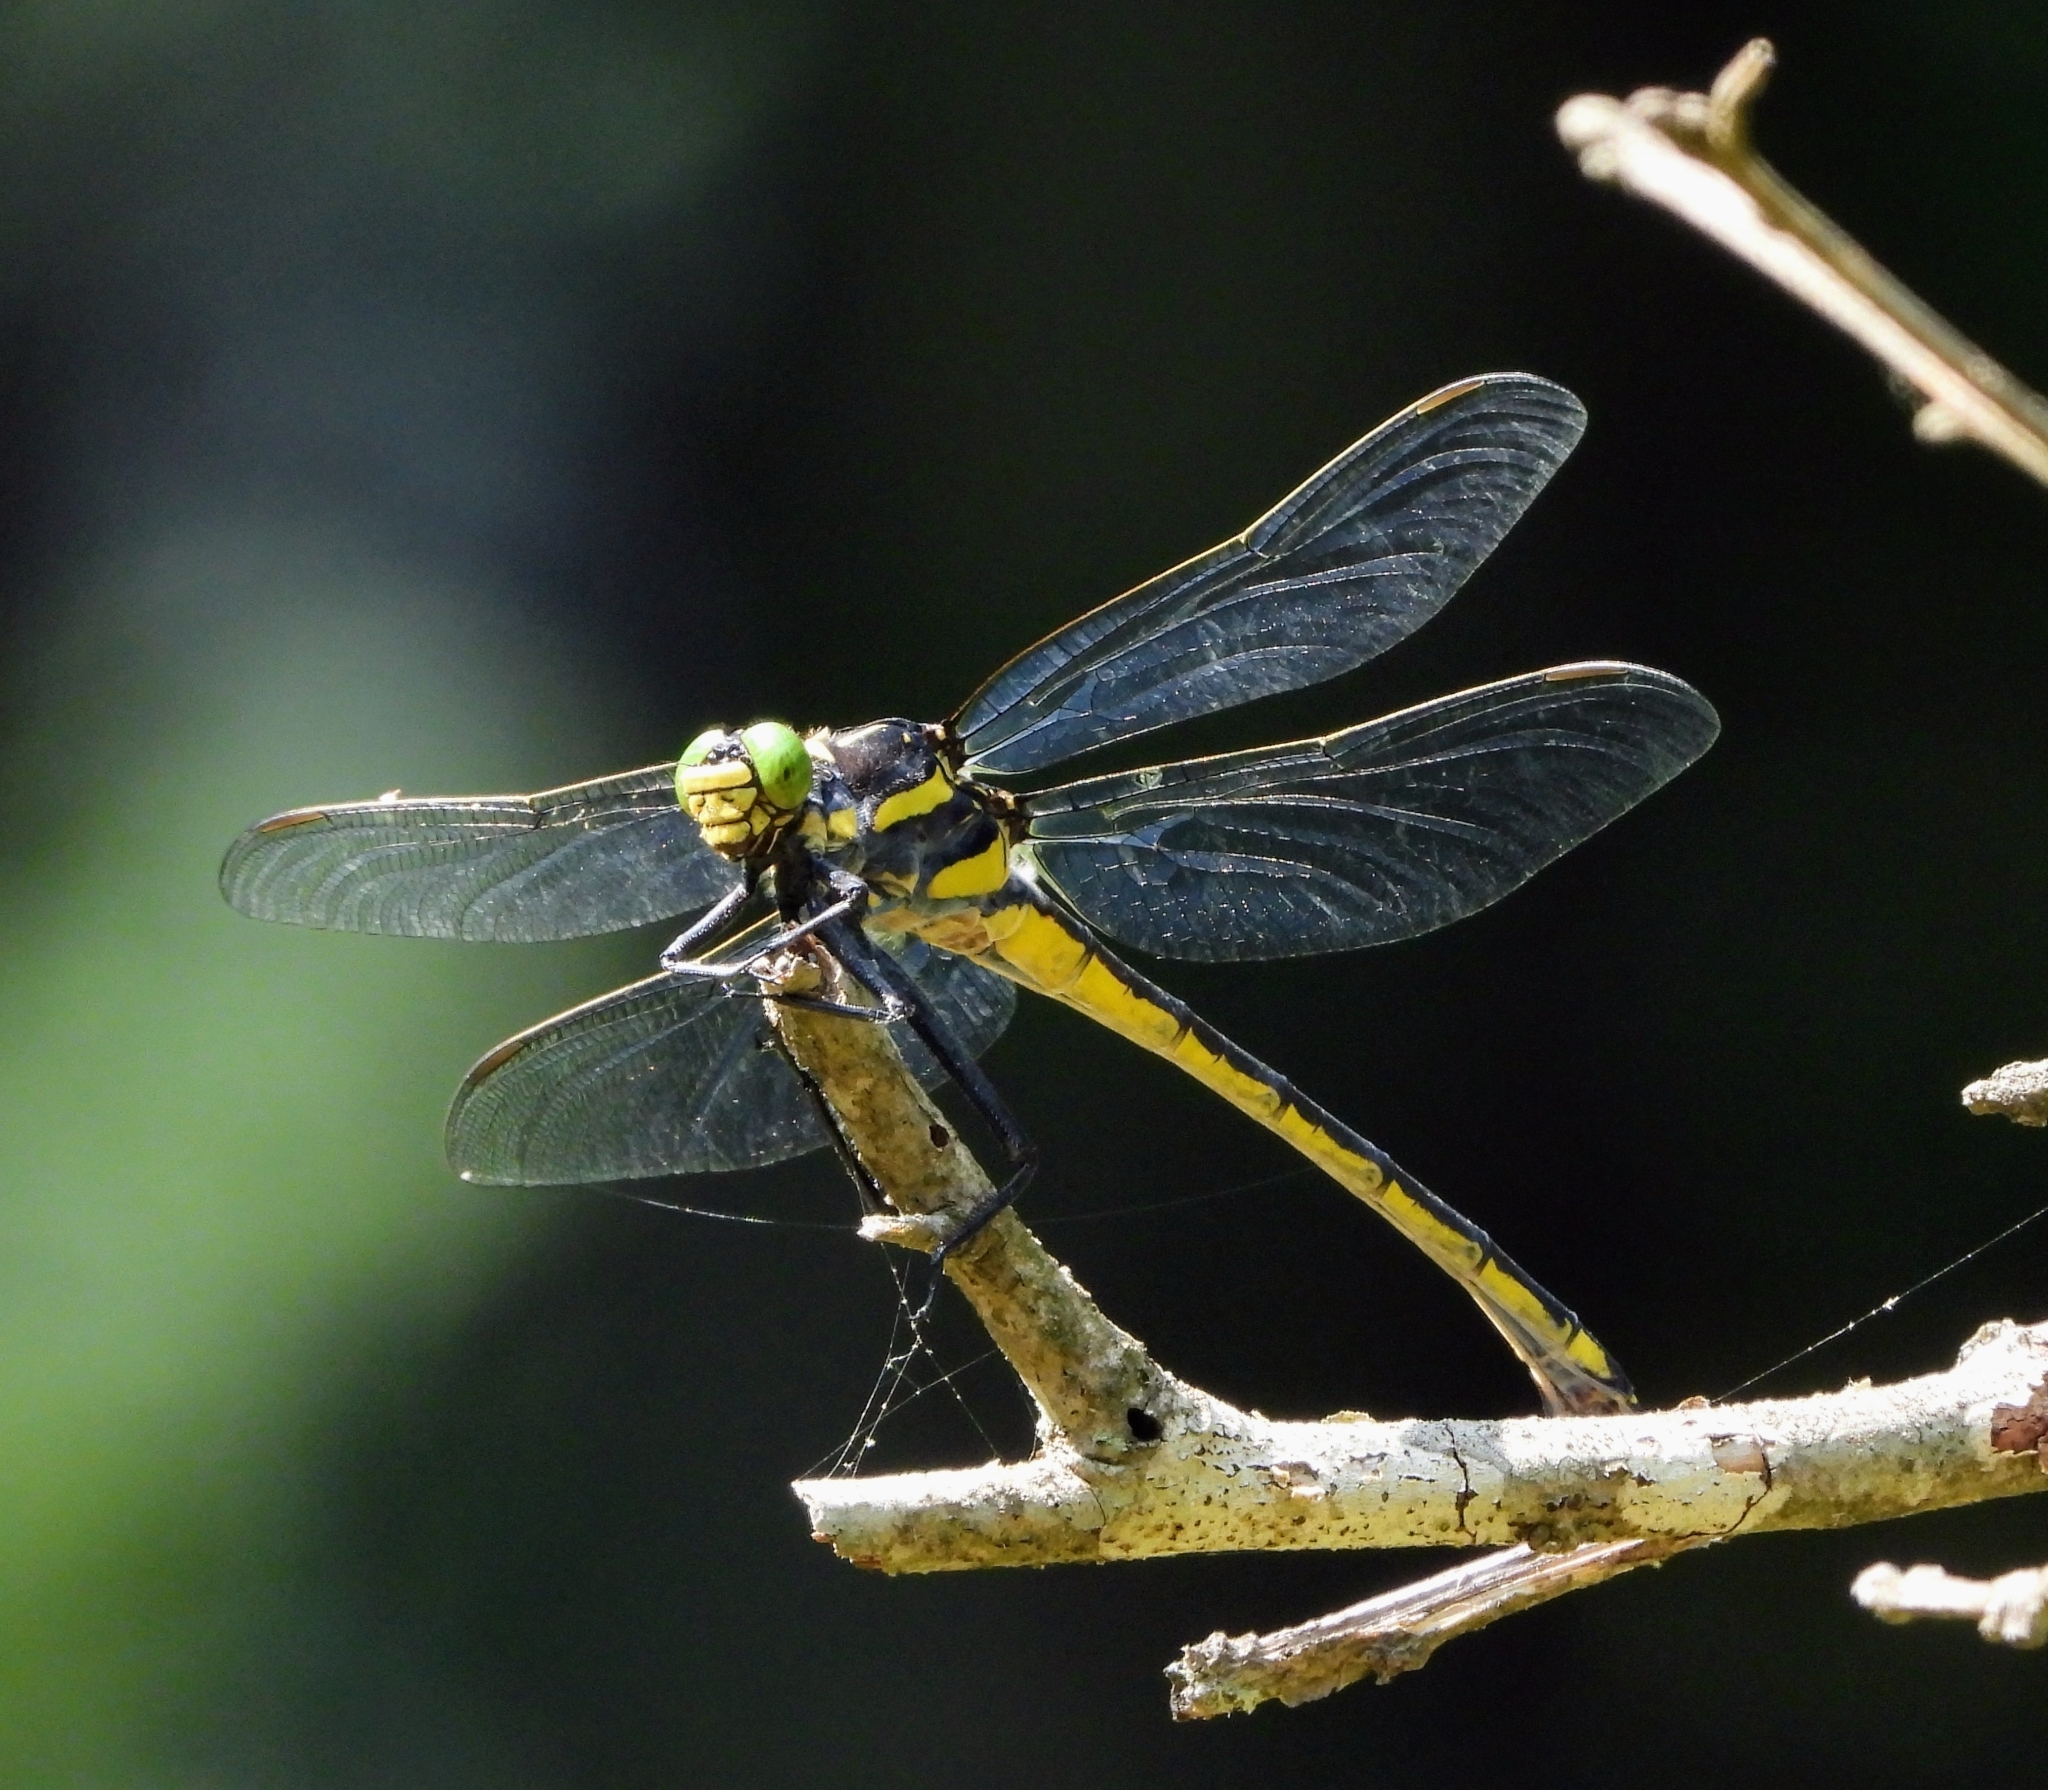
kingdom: Animalia
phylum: Arthropoda
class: Insecta
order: Odonata
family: Gomphidae
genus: Hagenius
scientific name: Hagenius brevistylus
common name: Dragonhunter
